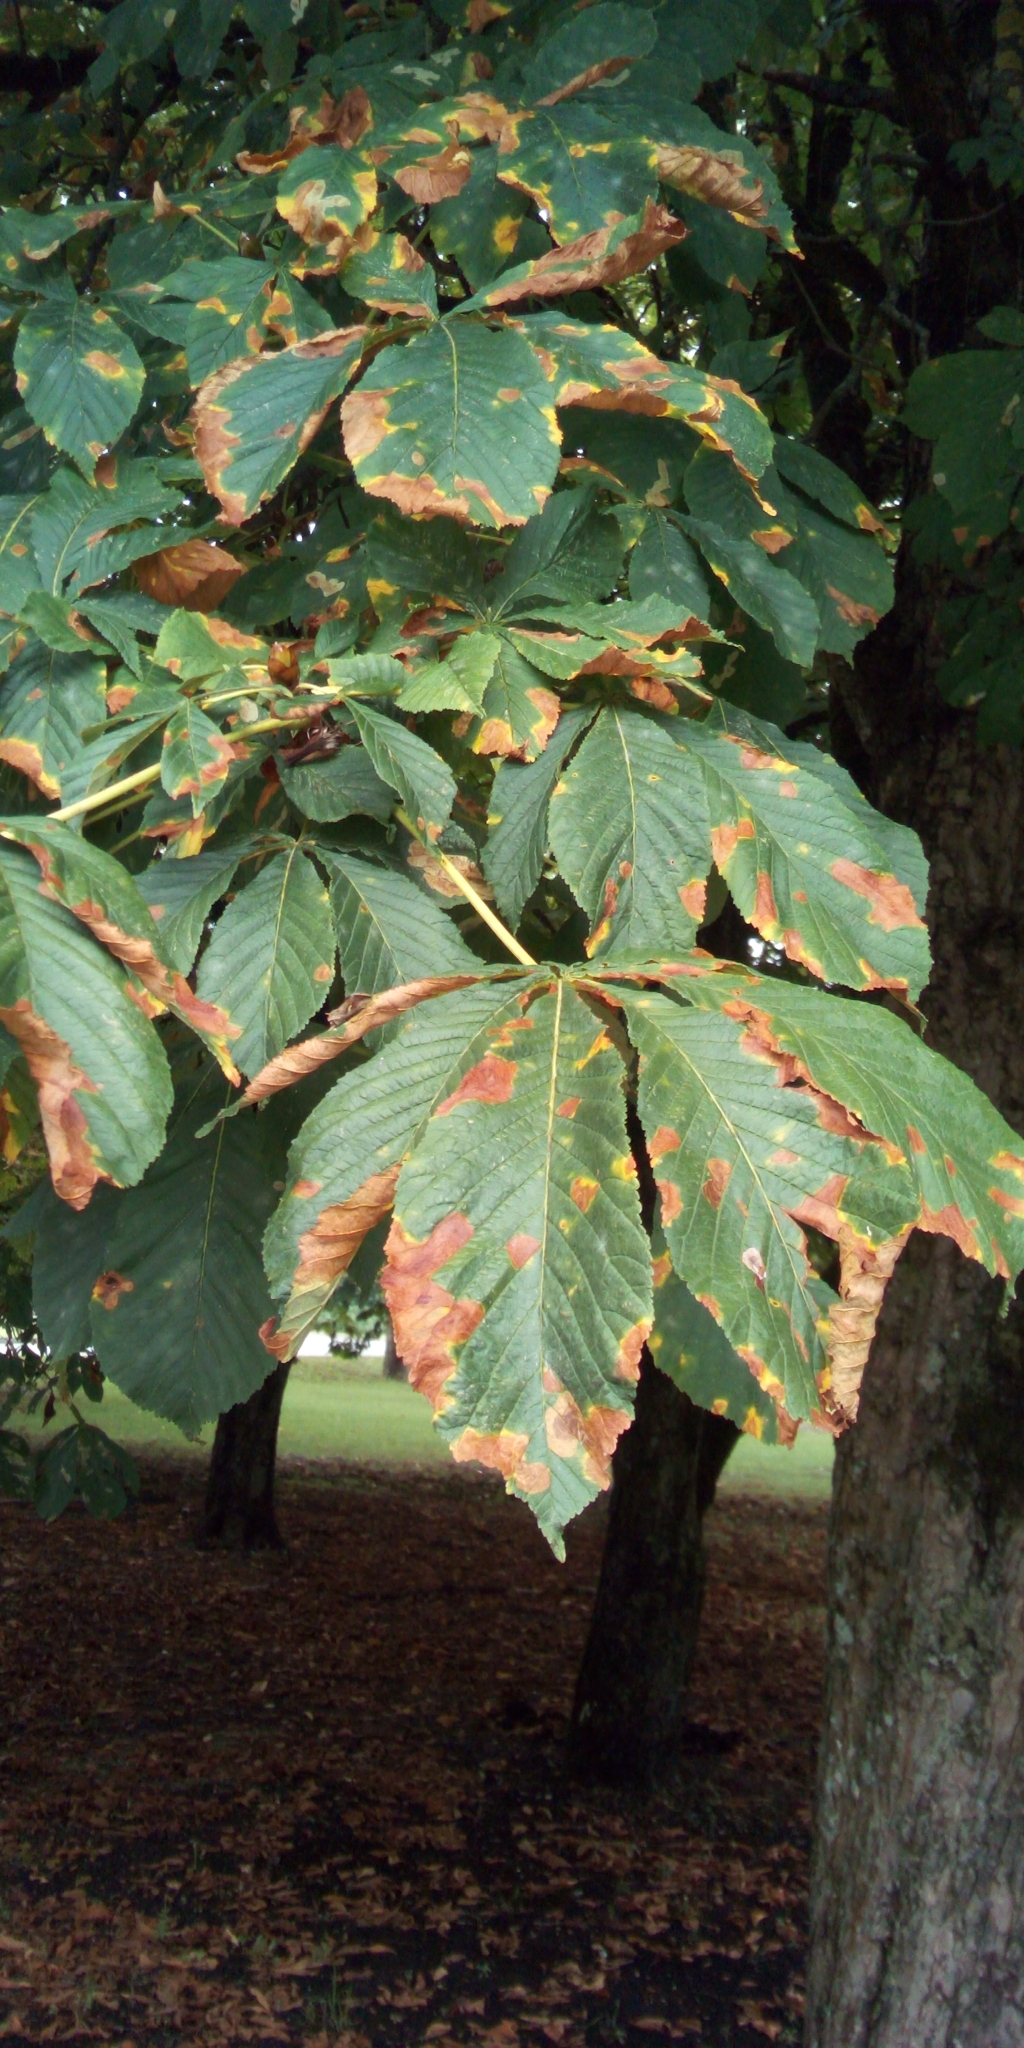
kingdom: Animalia
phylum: Arthropoda
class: Insecta
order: Lepidoptera
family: Gracillariidae
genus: Cameraria
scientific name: Cameraria ohridella
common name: Horse-chestnut leaf-miner
